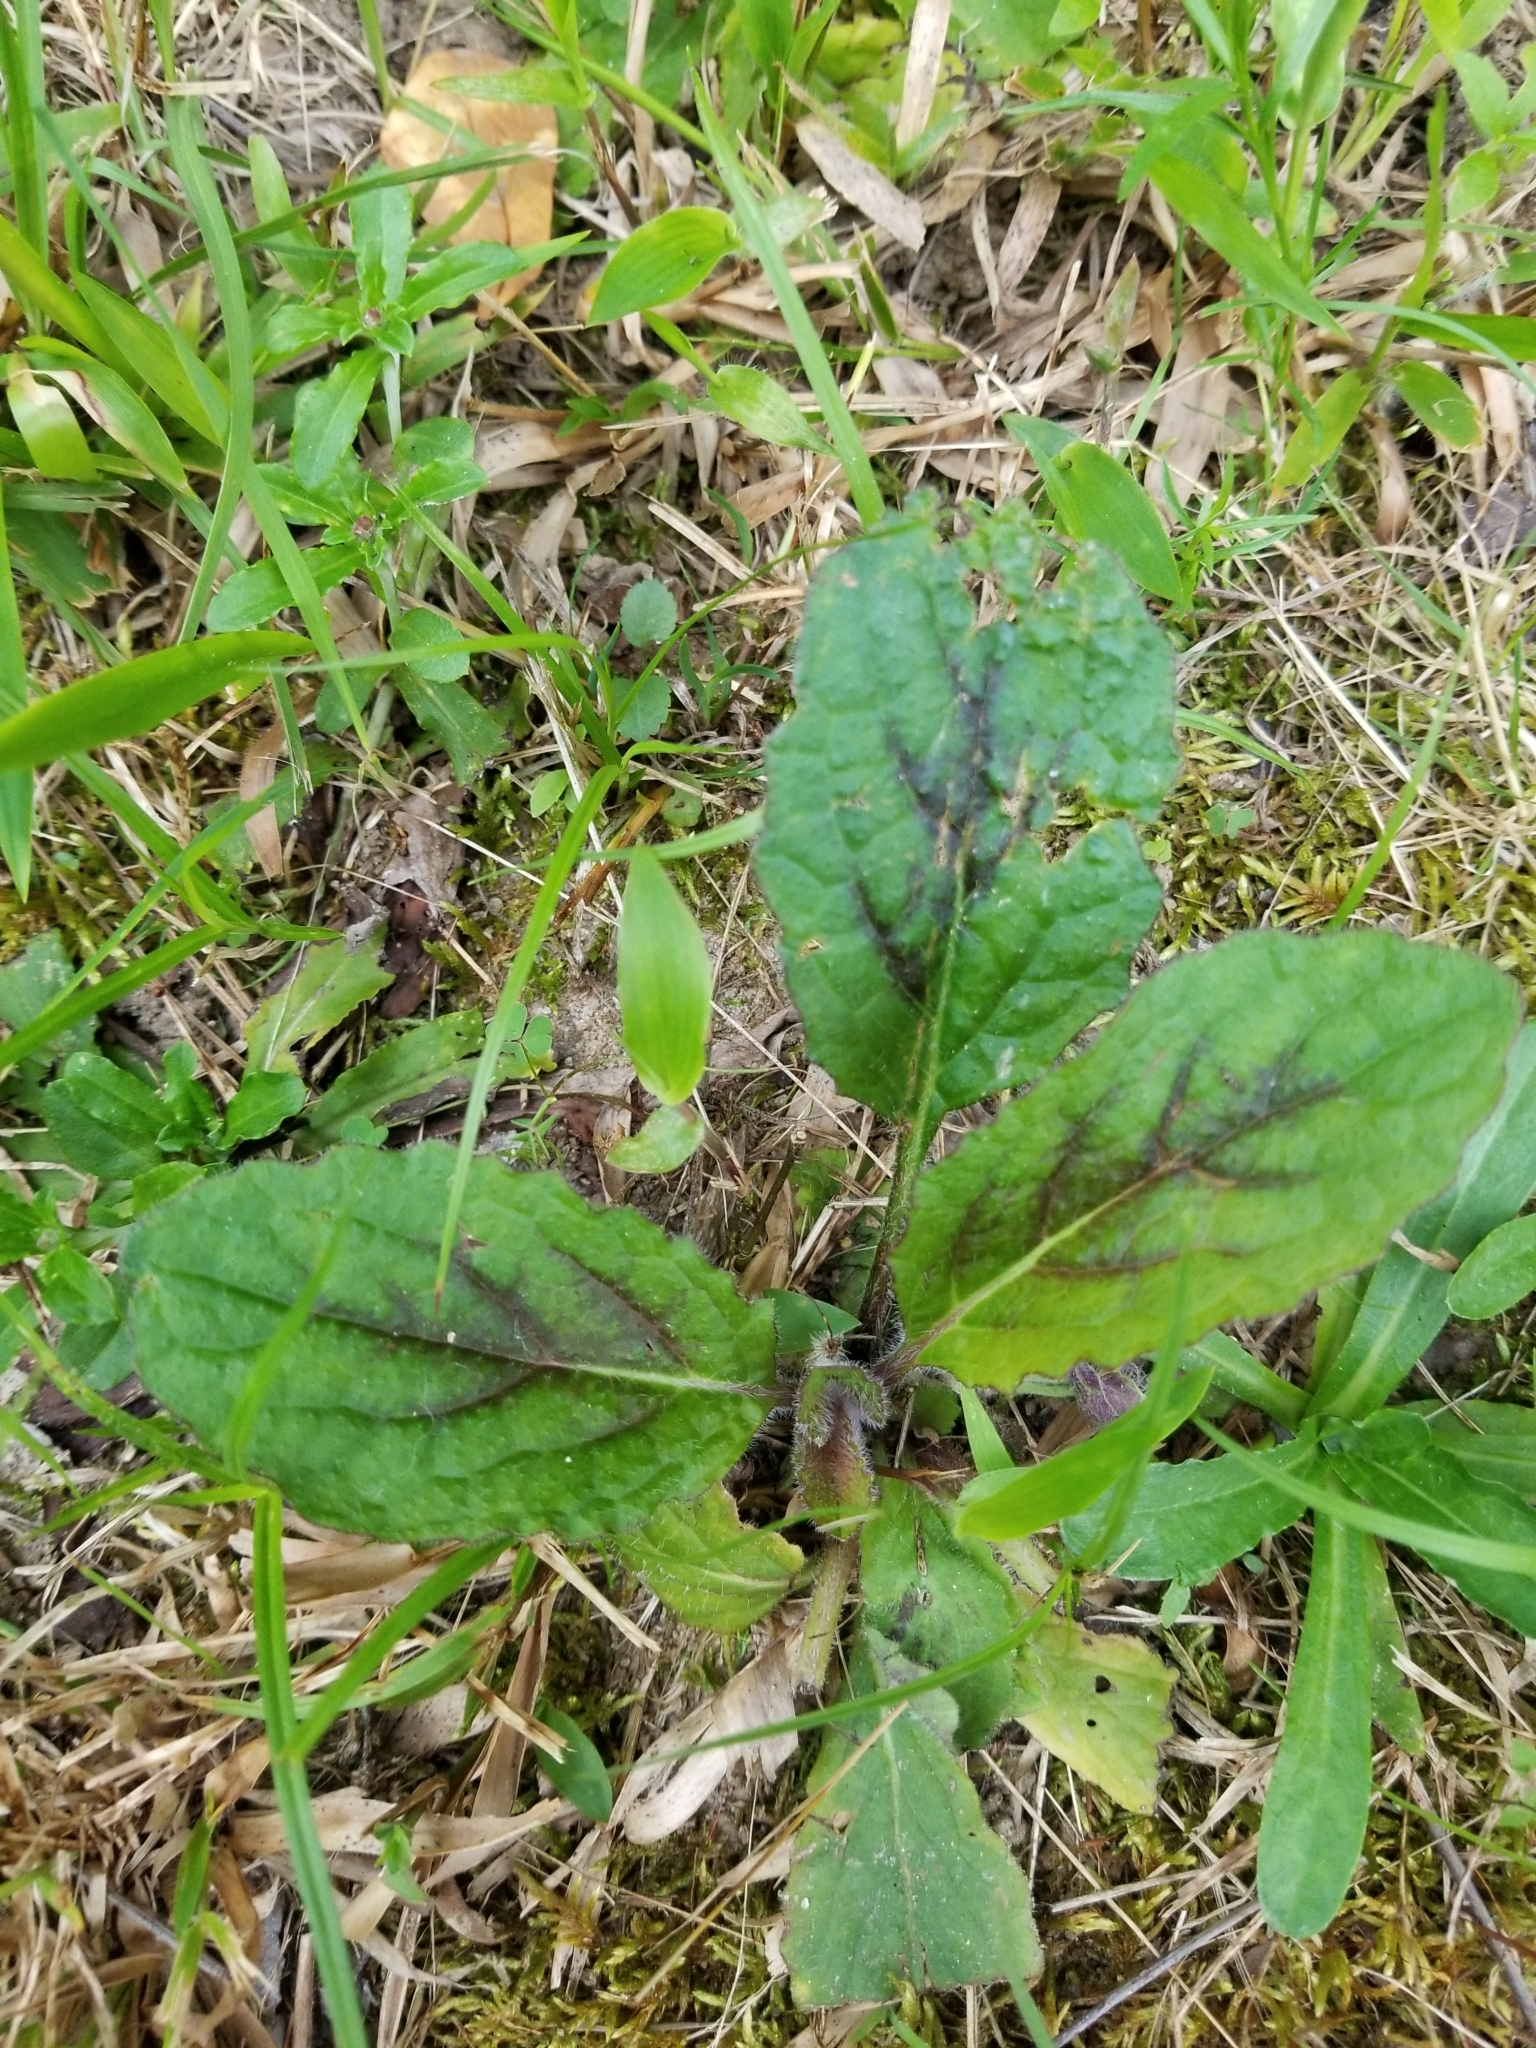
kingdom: Plantae
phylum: Tracheophyta
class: Magnoliopsida
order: Lamiales
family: Lamiaceae
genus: Salvia
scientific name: Salvia lyrata
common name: Cancerweed
